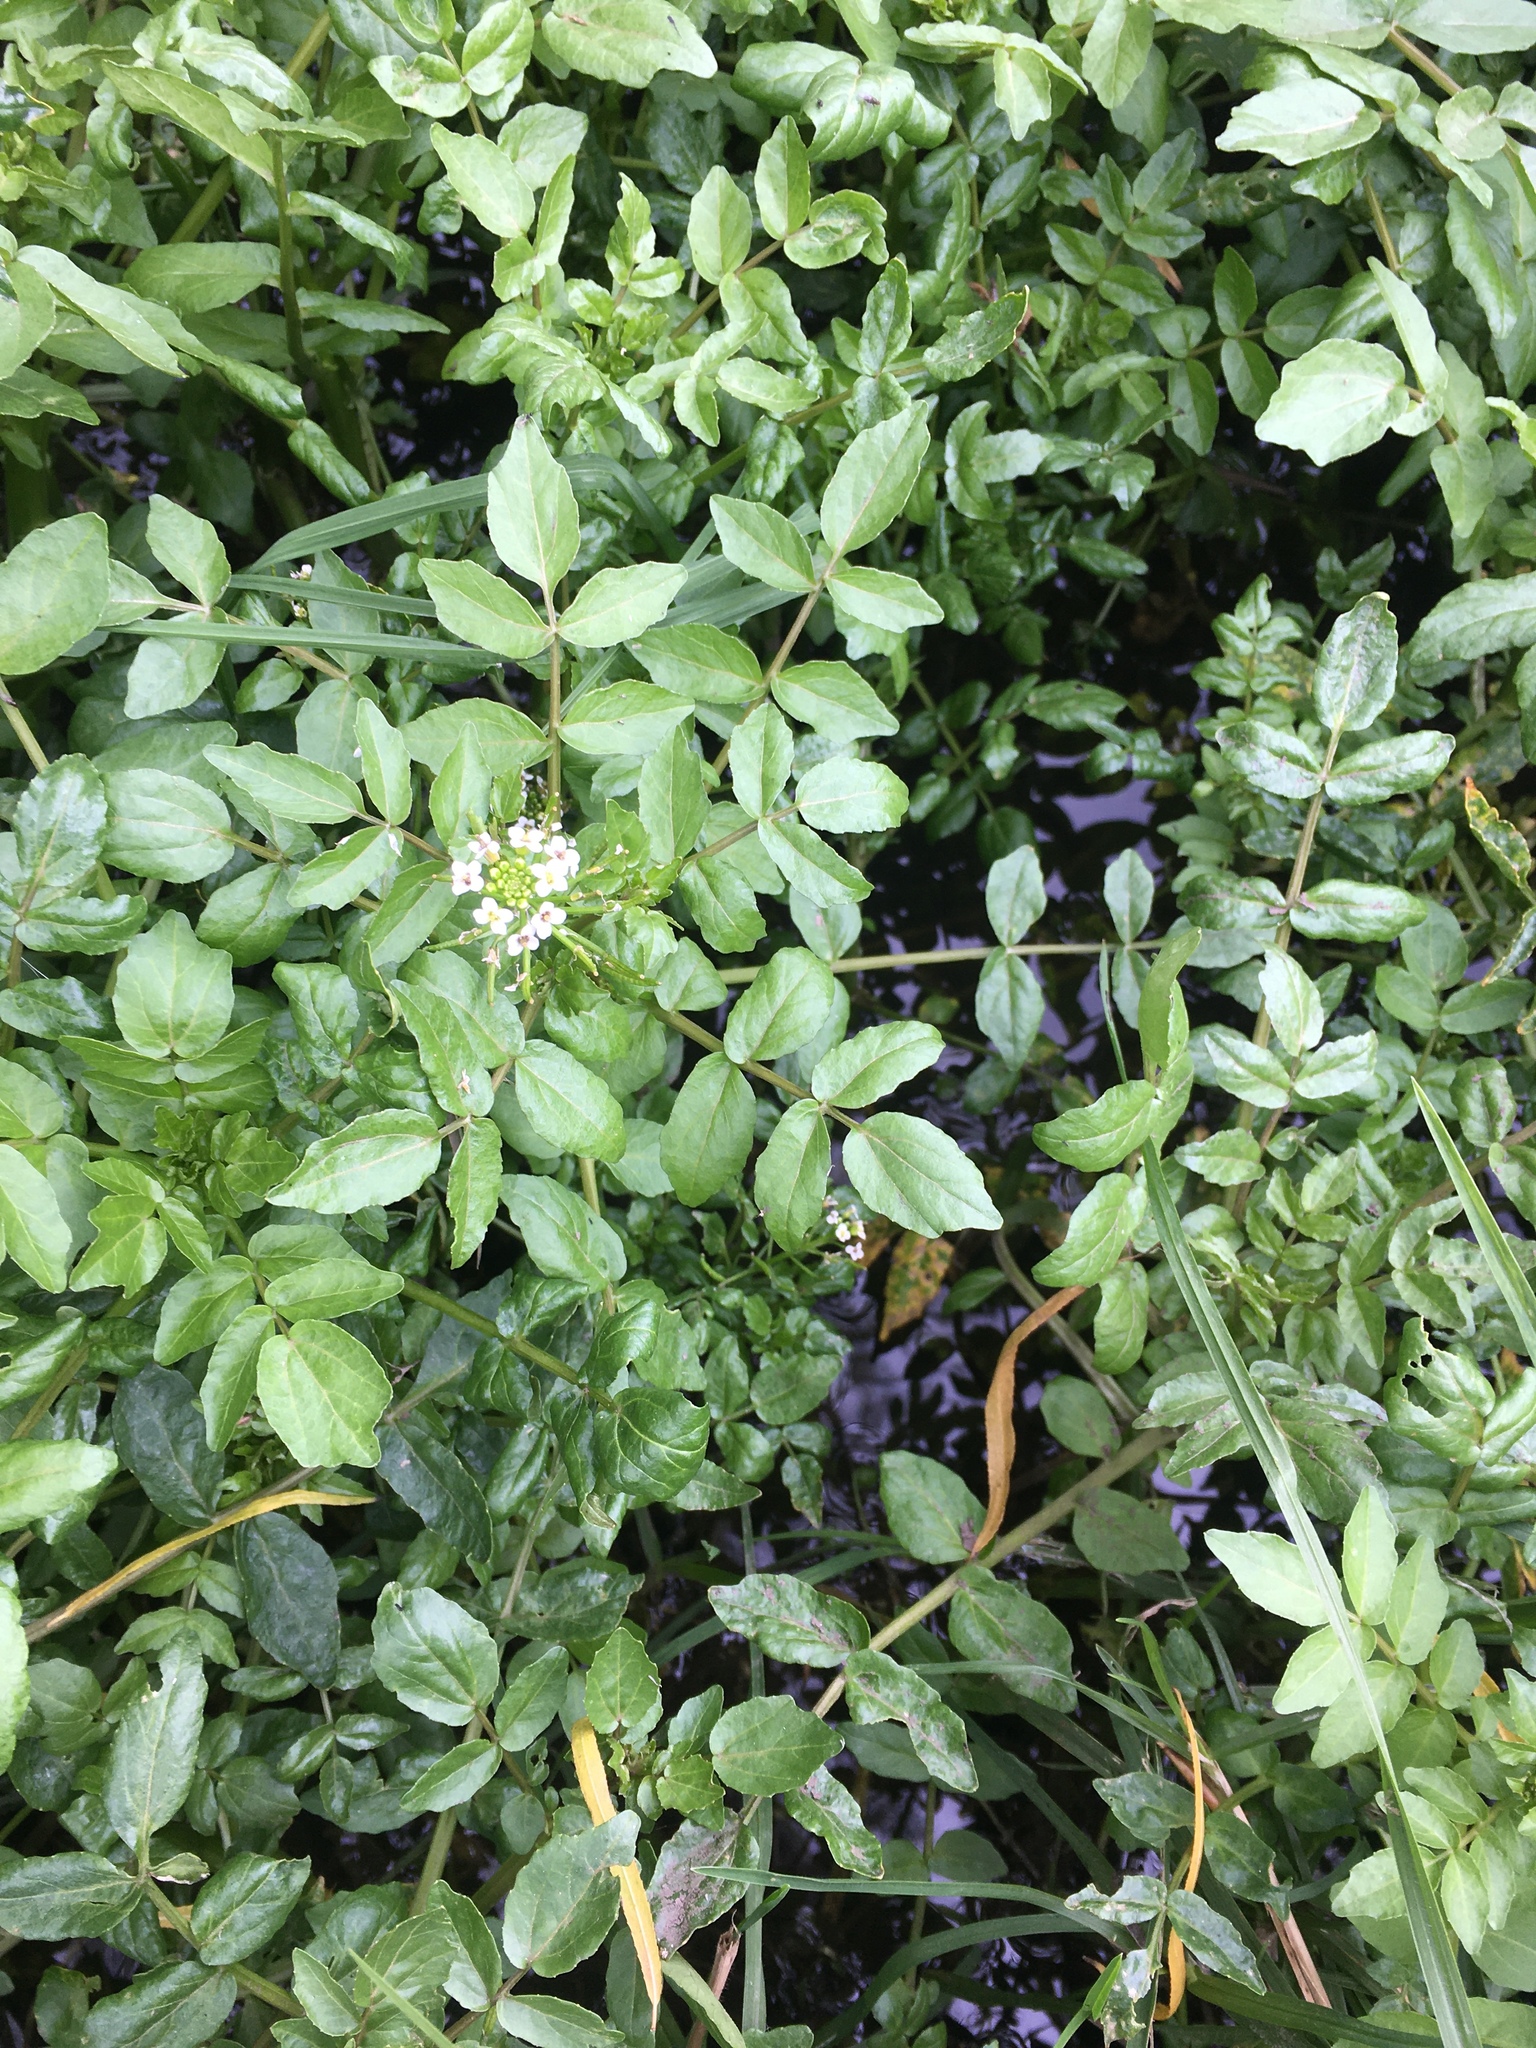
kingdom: Plantae
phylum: Tracheophyta
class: Magnoliopsida
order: Brassicales
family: Brassicaceae
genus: Nasturtium
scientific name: Nasturtium officinale
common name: Watercress
